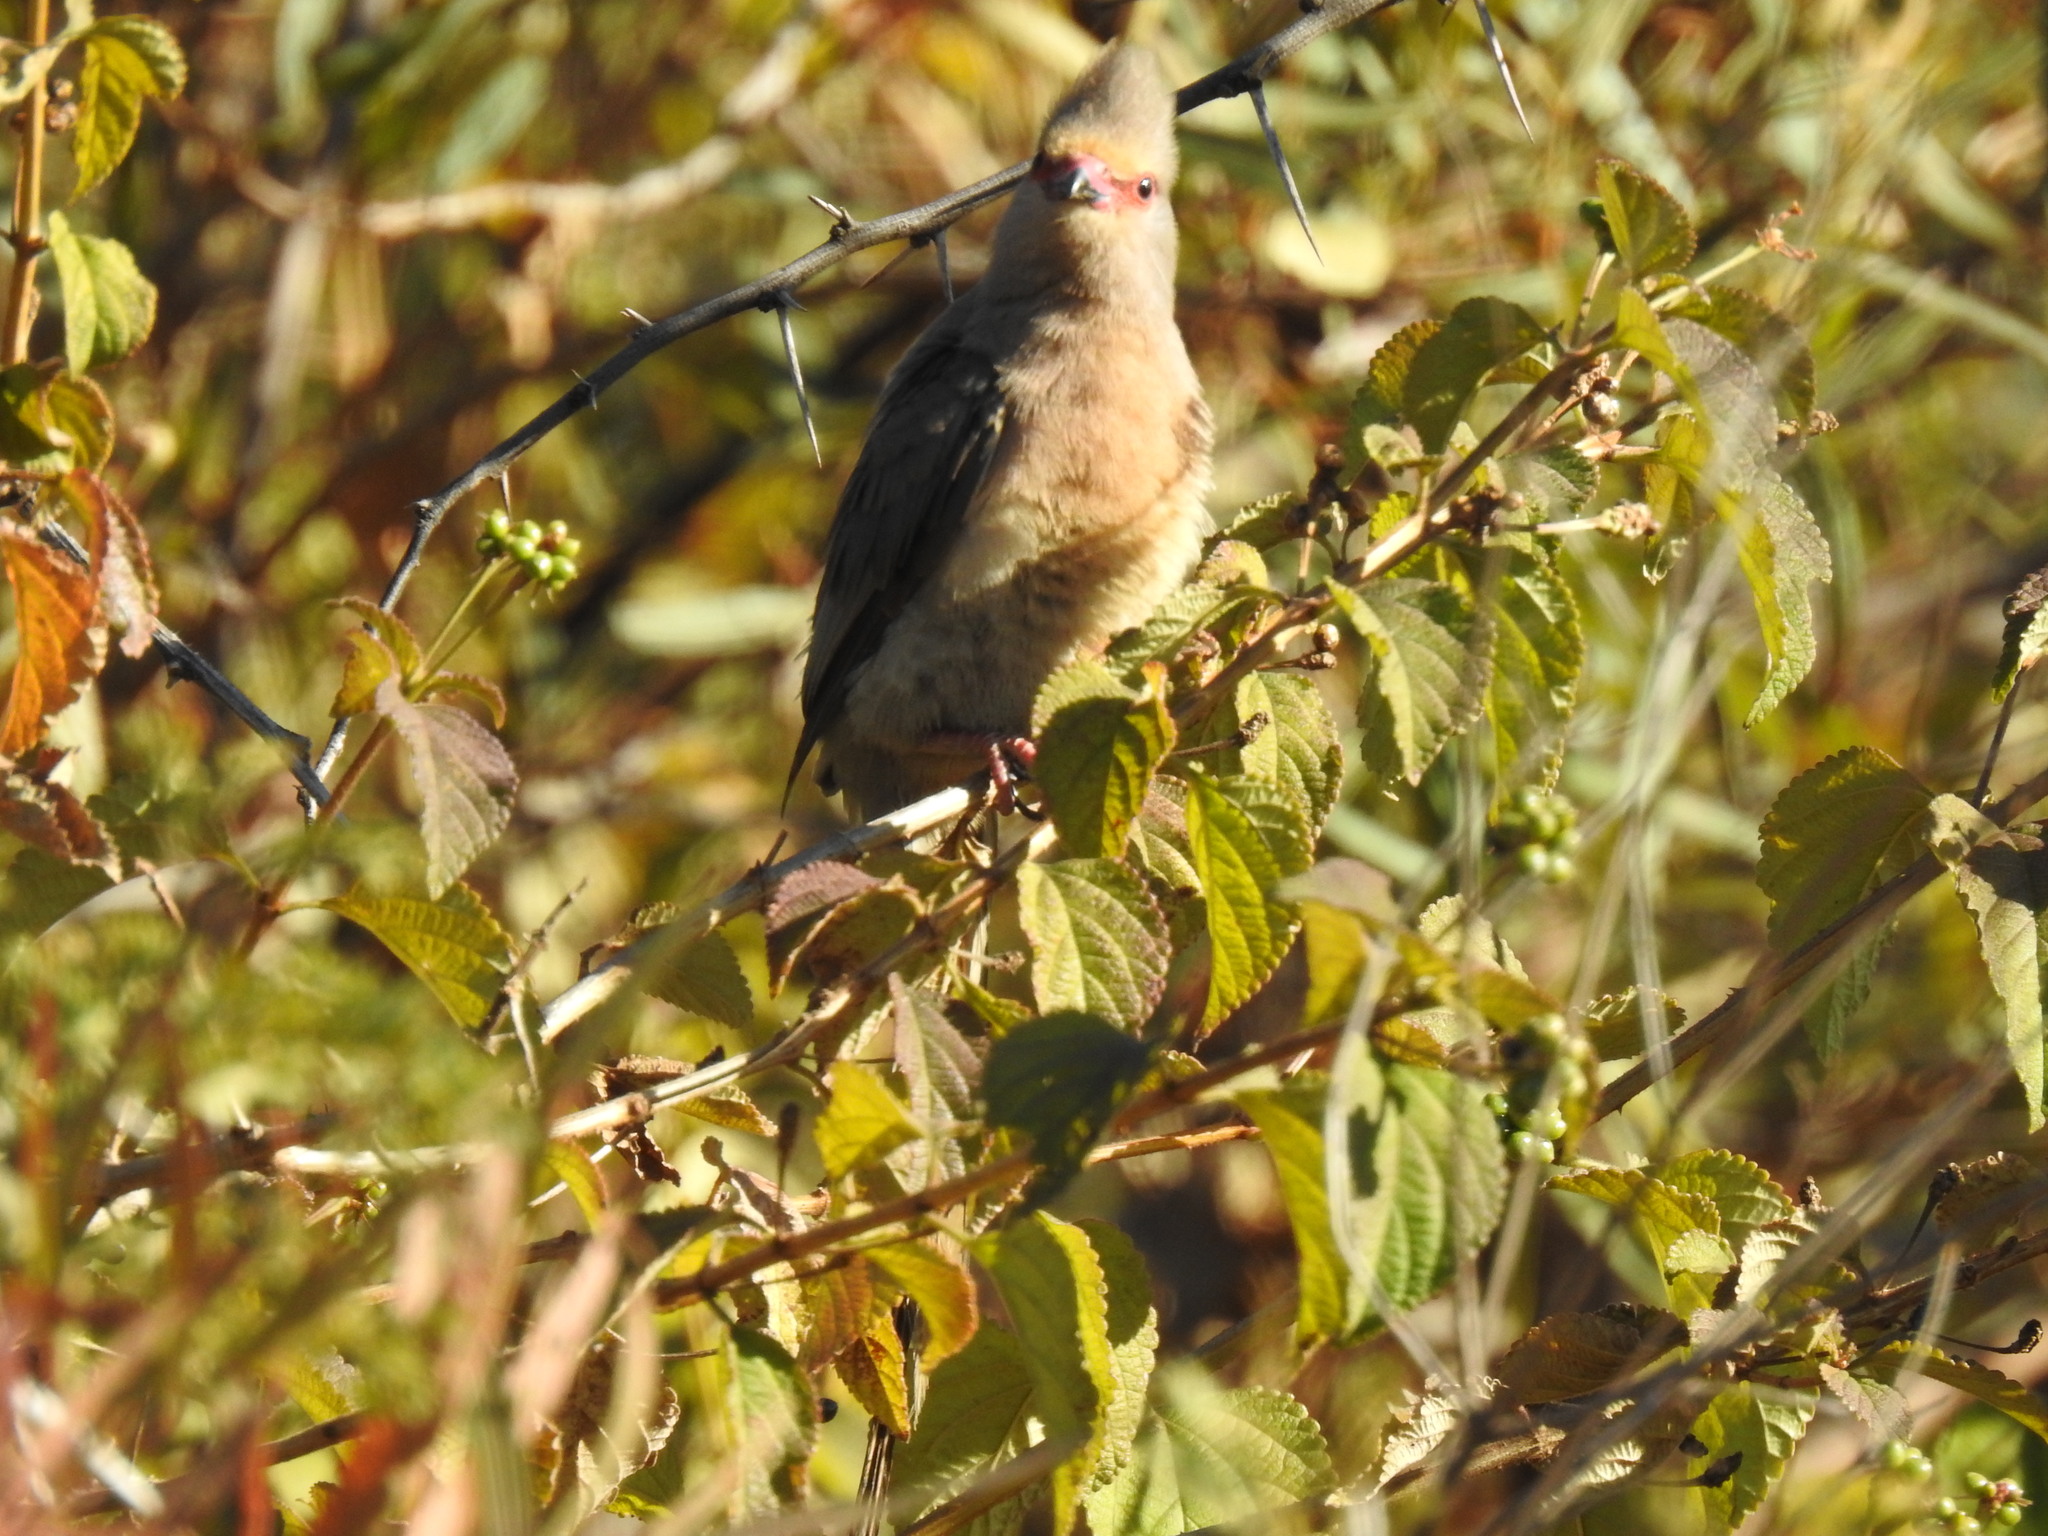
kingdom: Animalia
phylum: Chordata
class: Aves
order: Coliiformes
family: Coliidae
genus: Urocolius
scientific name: Urocolius indicus
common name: Red-faced mousebird
